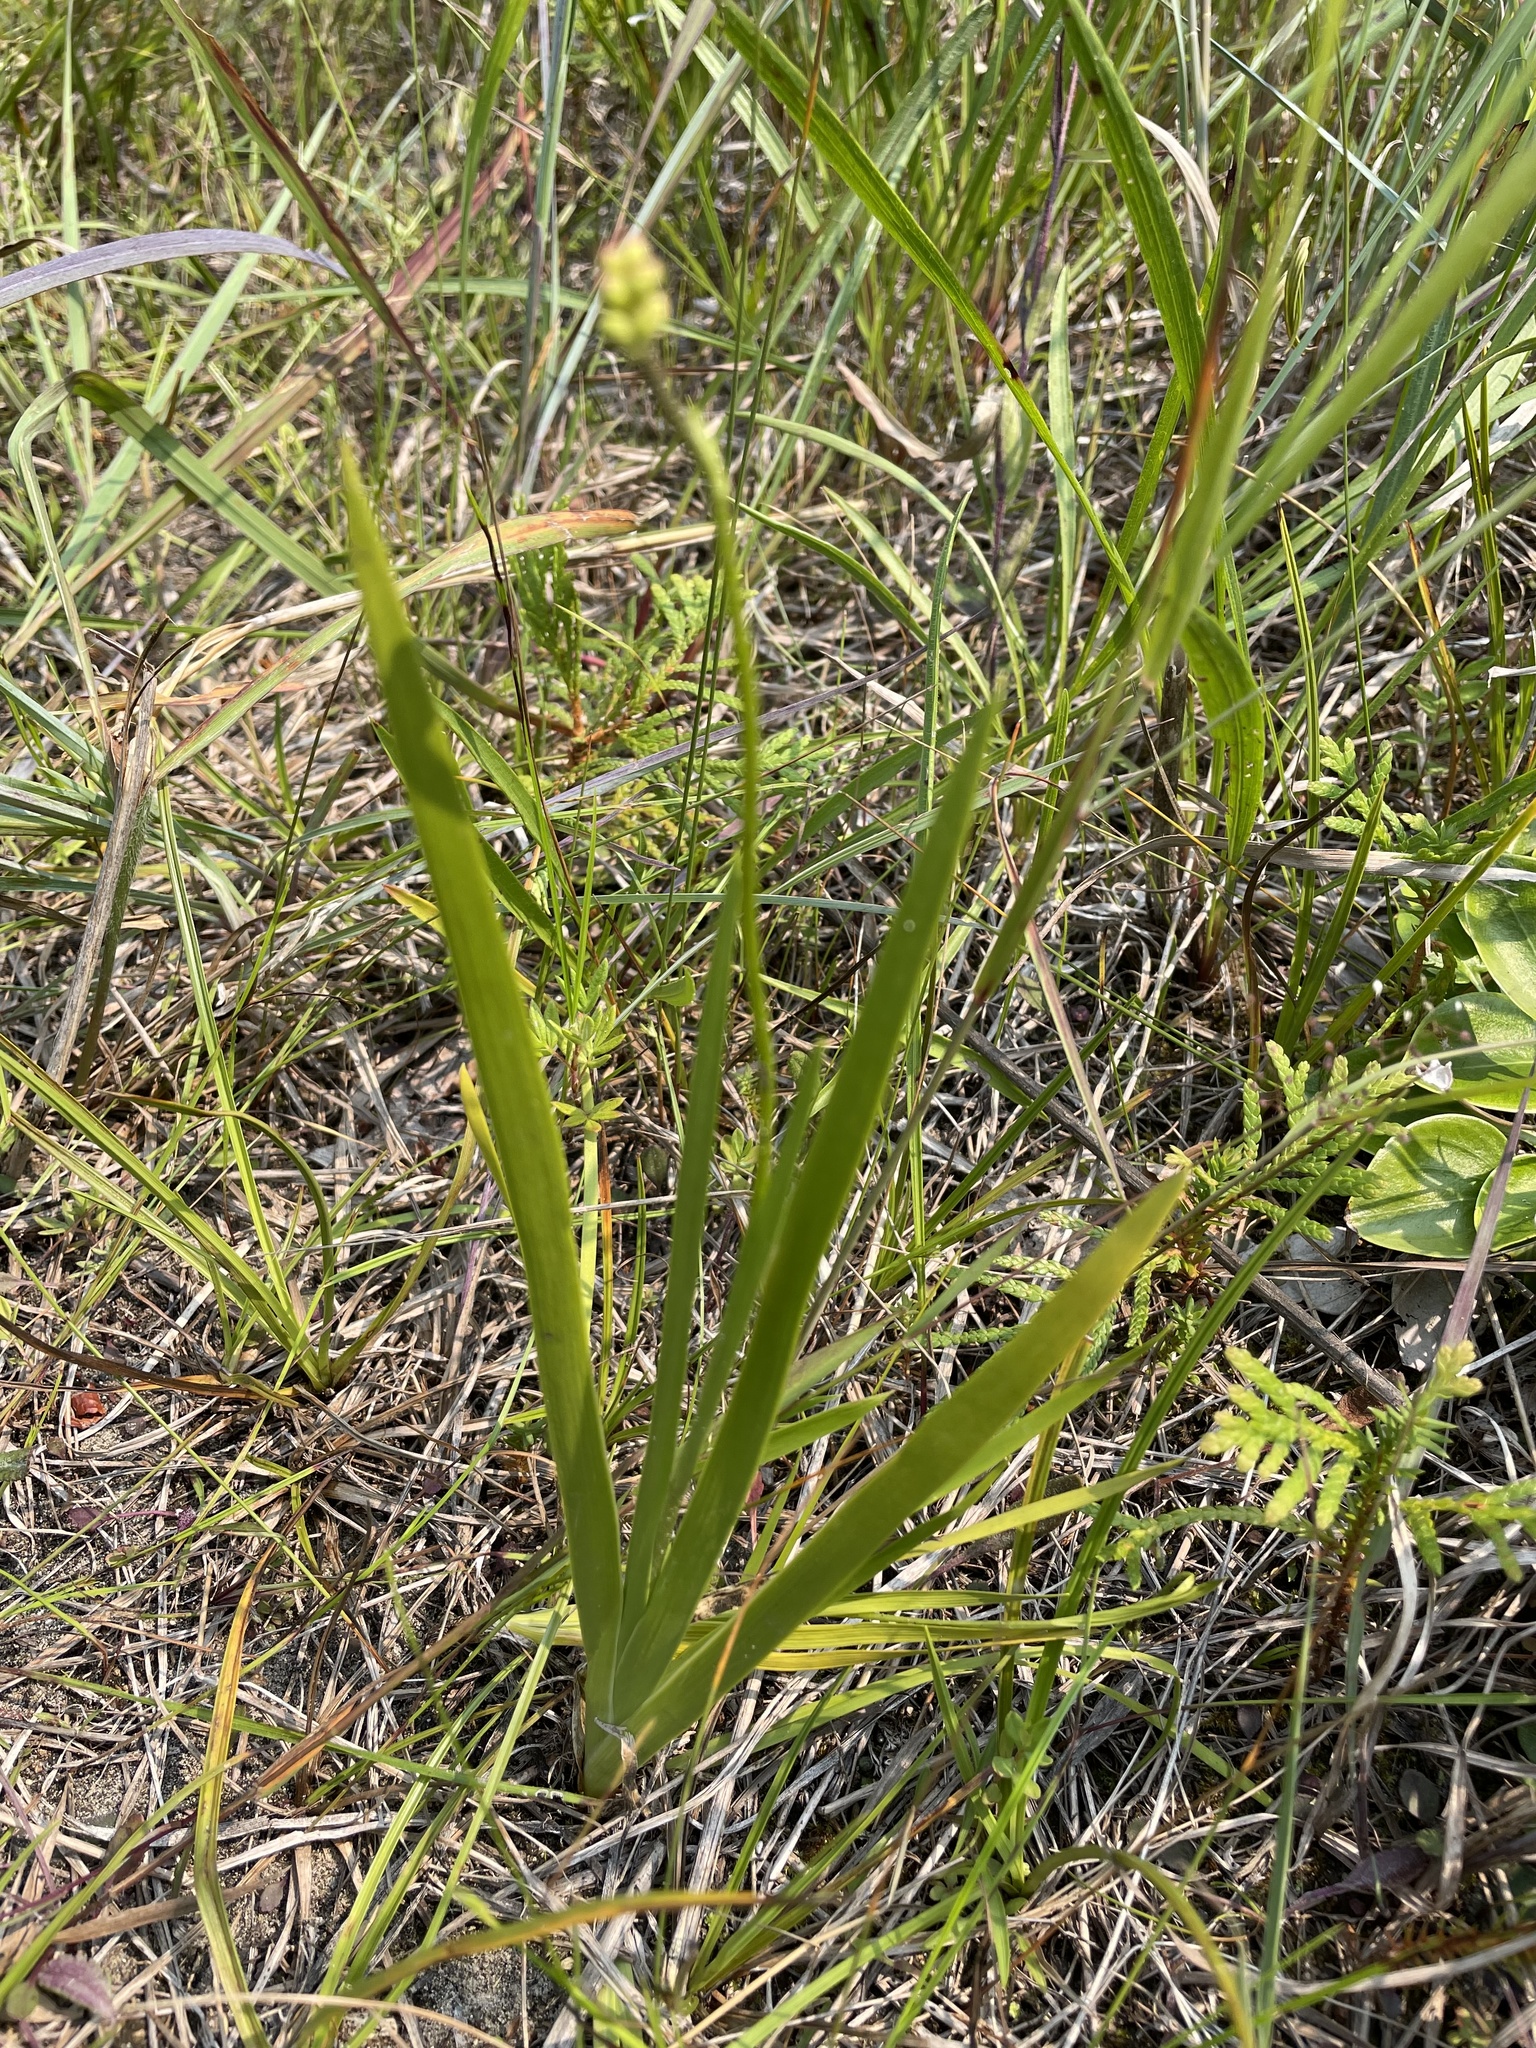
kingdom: Plantae
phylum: Tracheophyta
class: Liliopsida
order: Alismatales
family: Tofieldiaceae
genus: Triantha
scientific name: Triantha glutinosa
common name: Glutinous tofieldia
